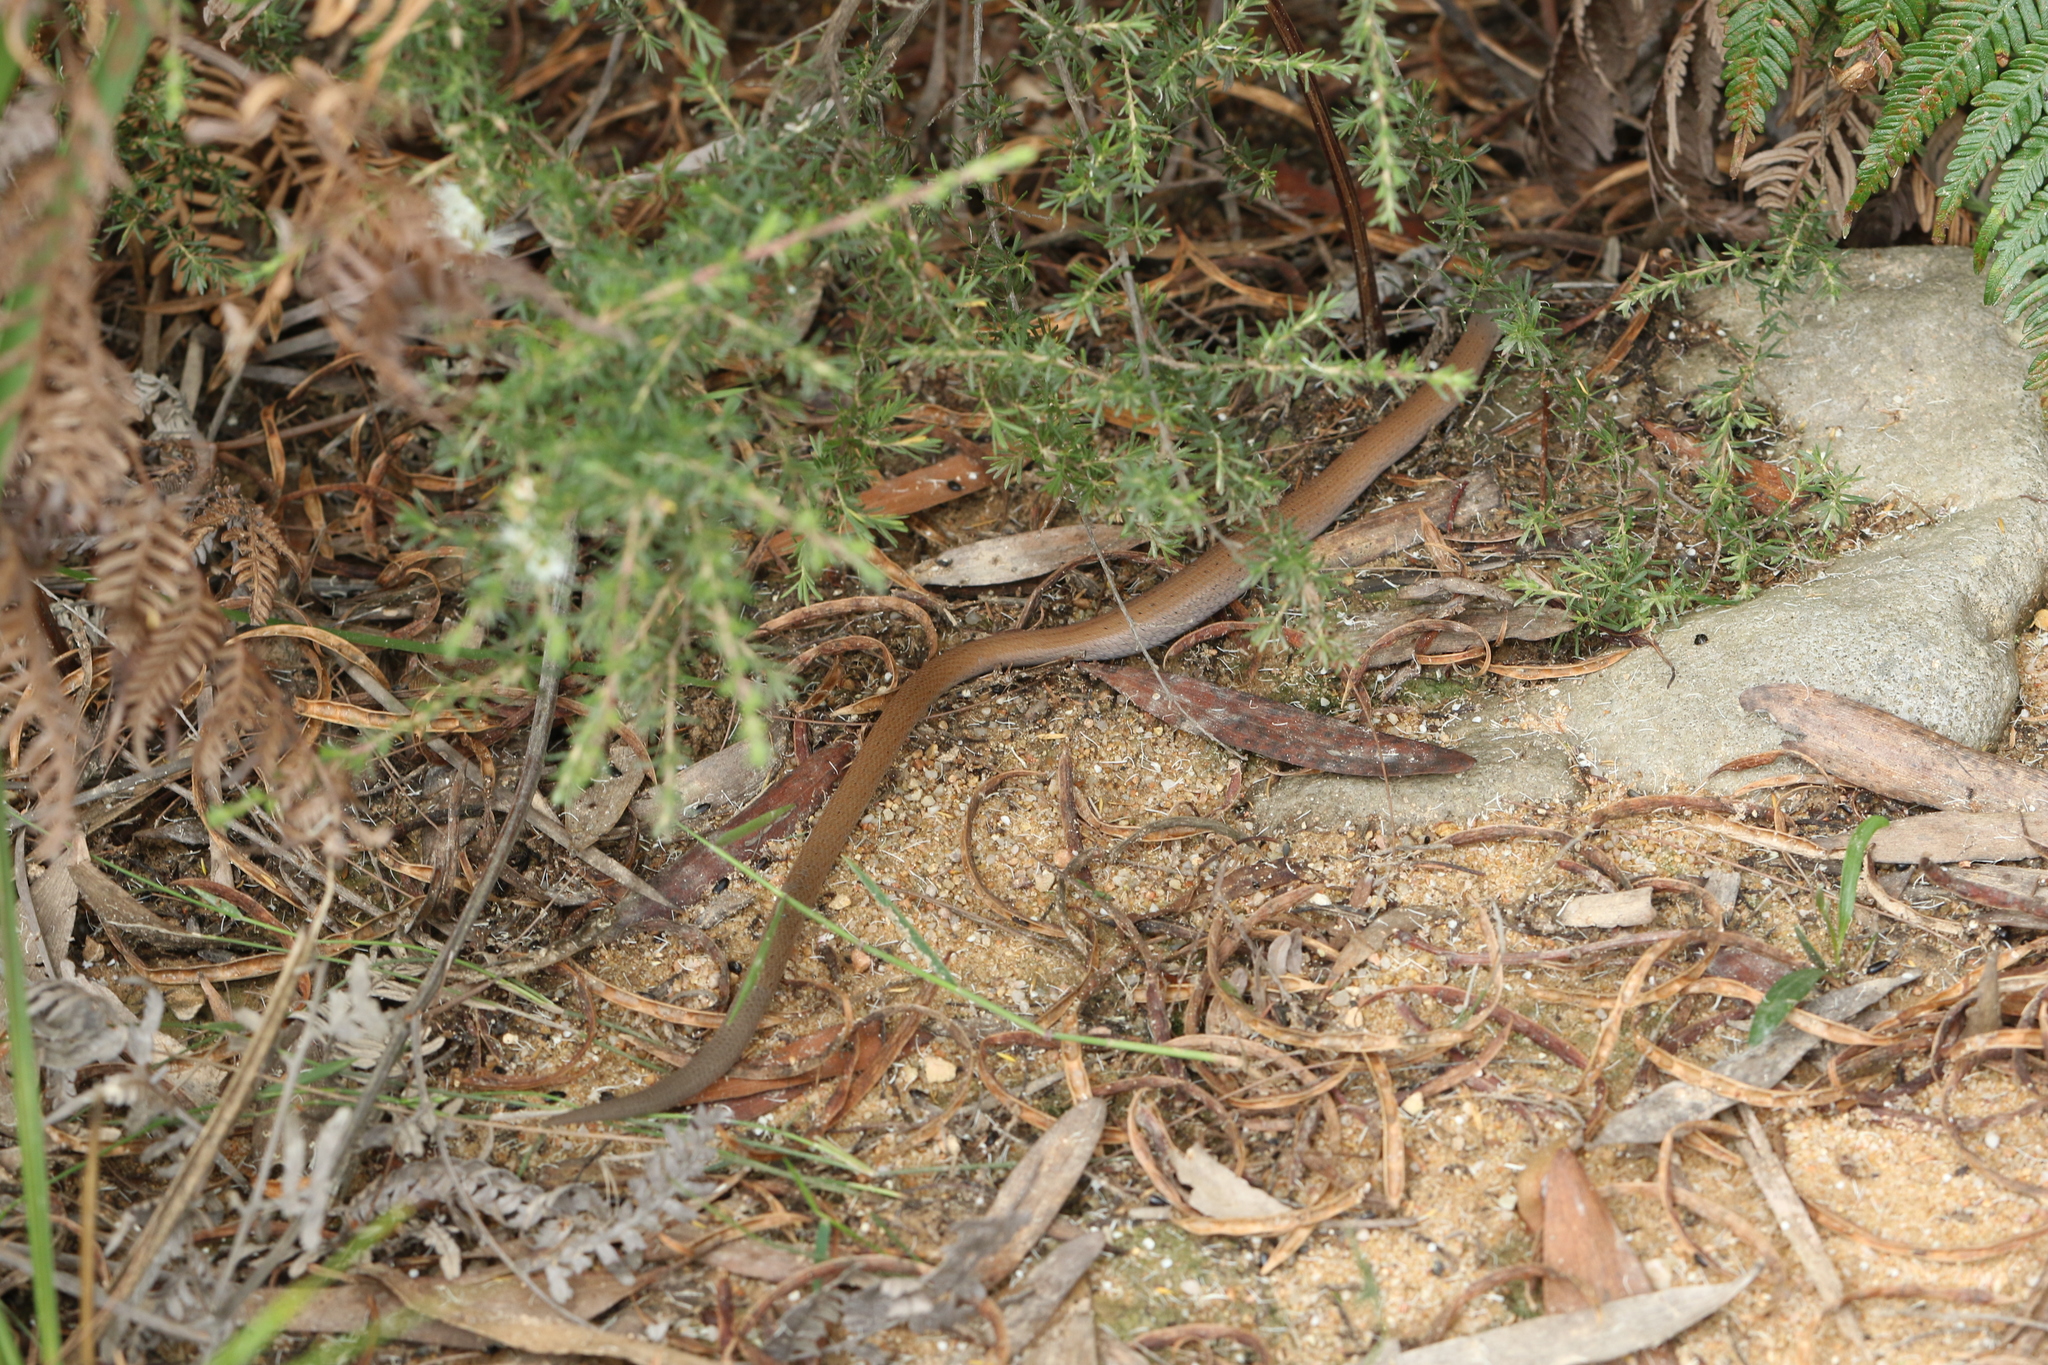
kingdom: Animalia
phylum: Chordata
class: Squamata
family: Pygopodidae
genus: Pygopus
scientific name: Pygopus lepidopodus
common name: Southern scaly-foot
